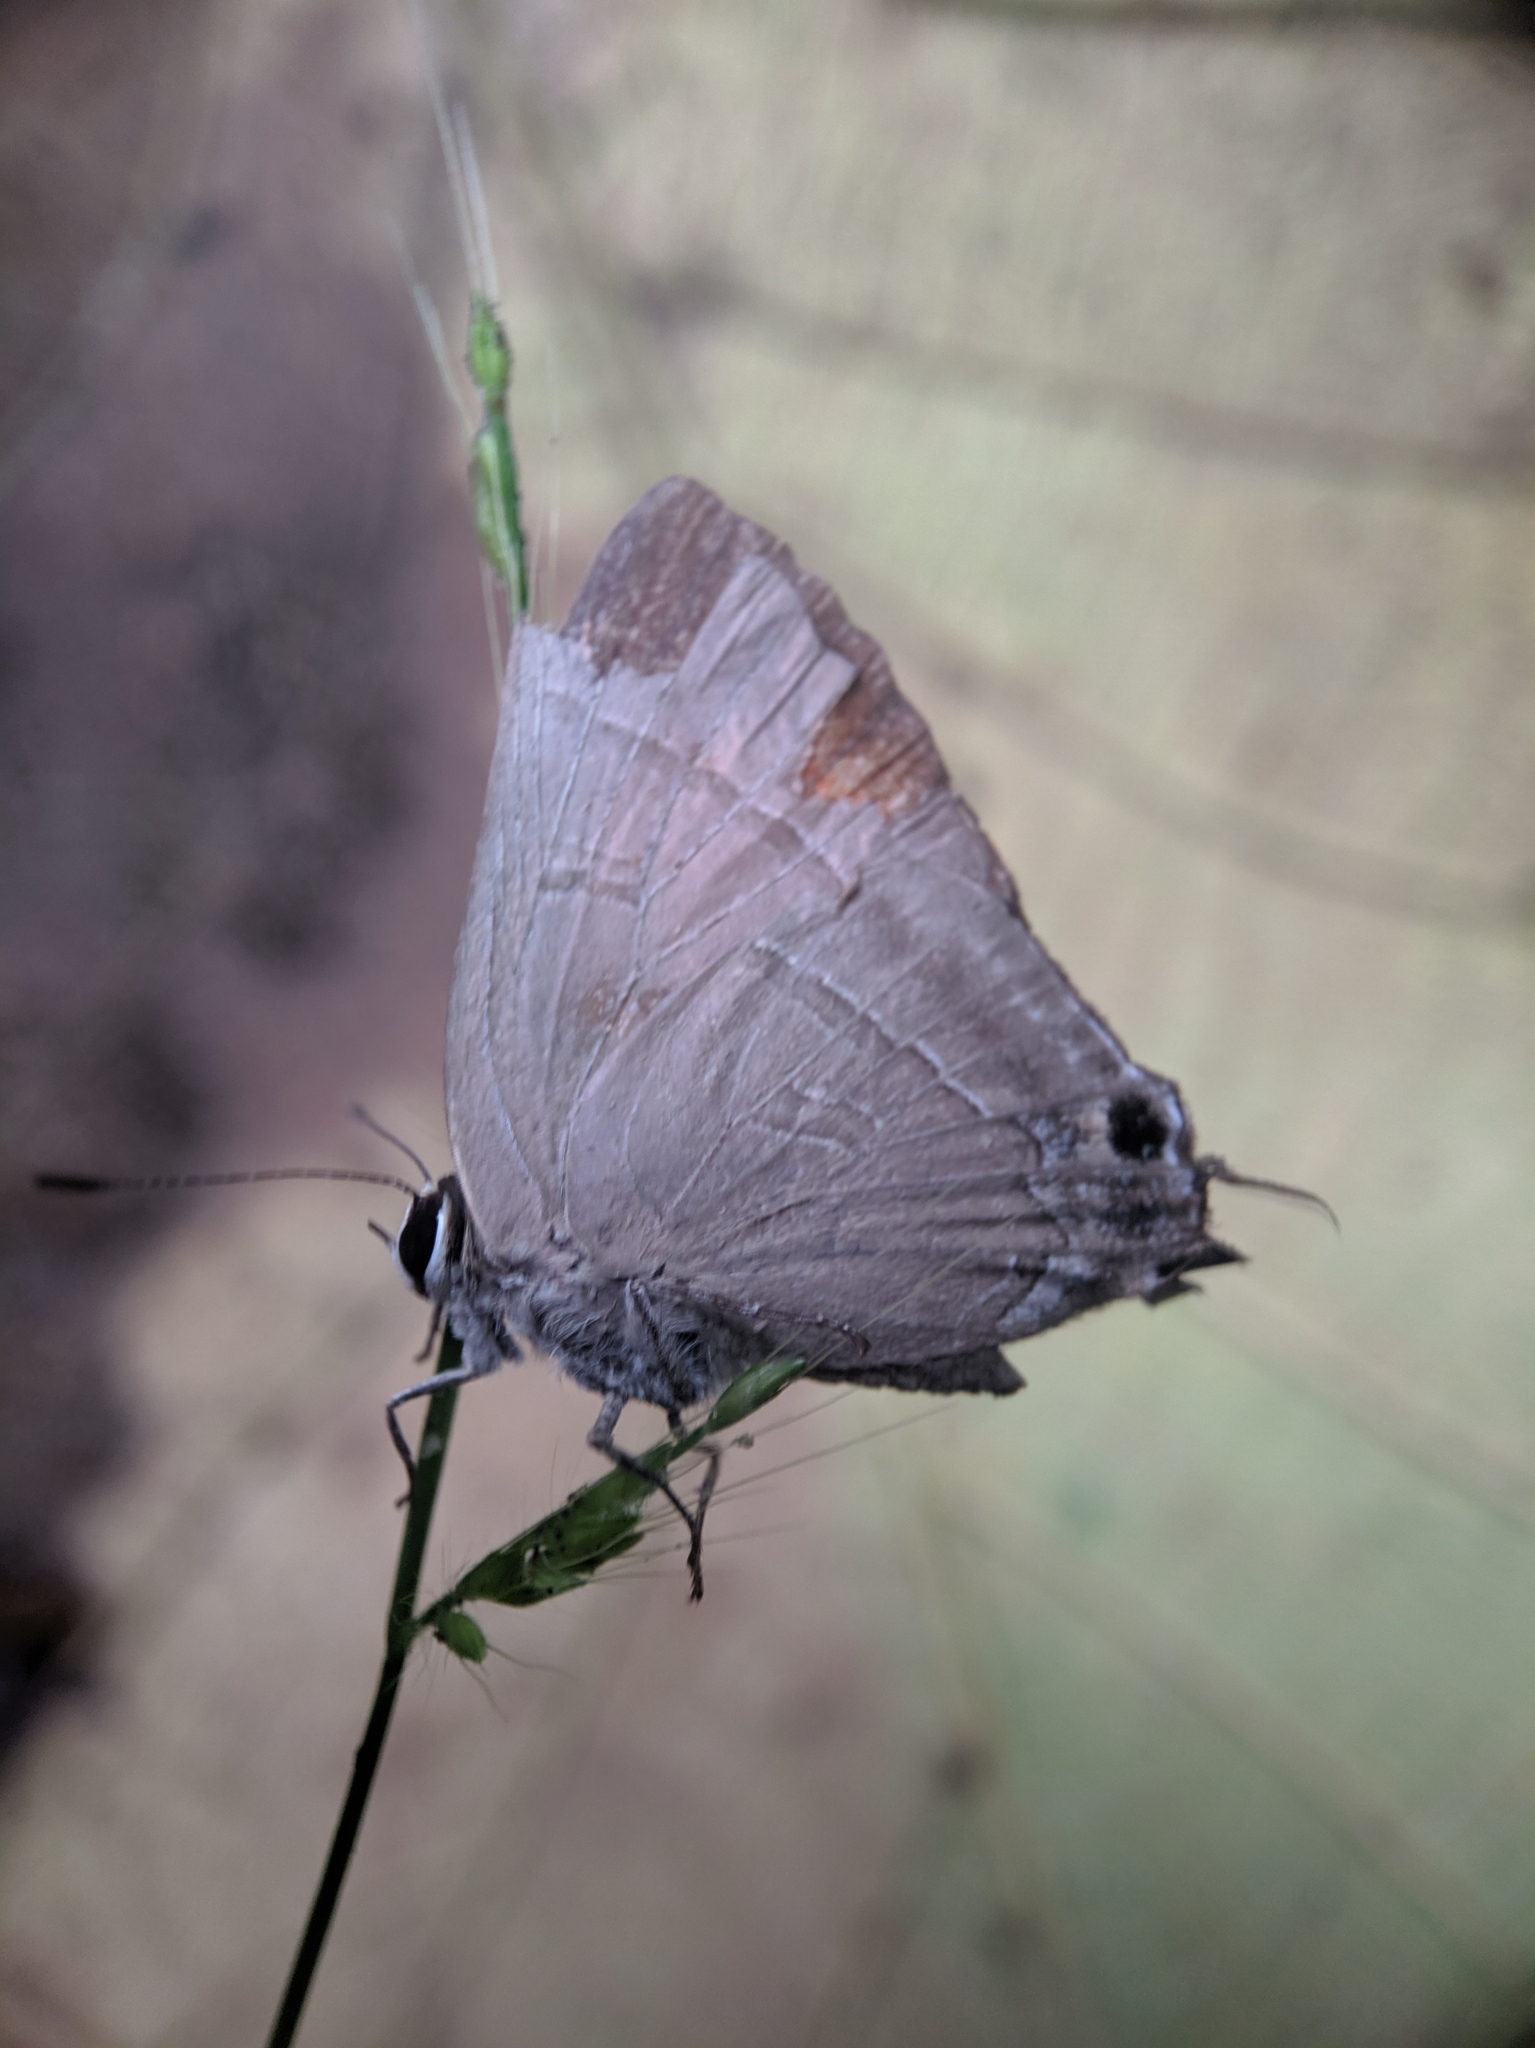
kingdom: Animalia
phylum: Arthropoda
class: Insecta
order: Lepidoptera
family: Lycaenidae
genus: Rapala
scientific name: Rapala manea
